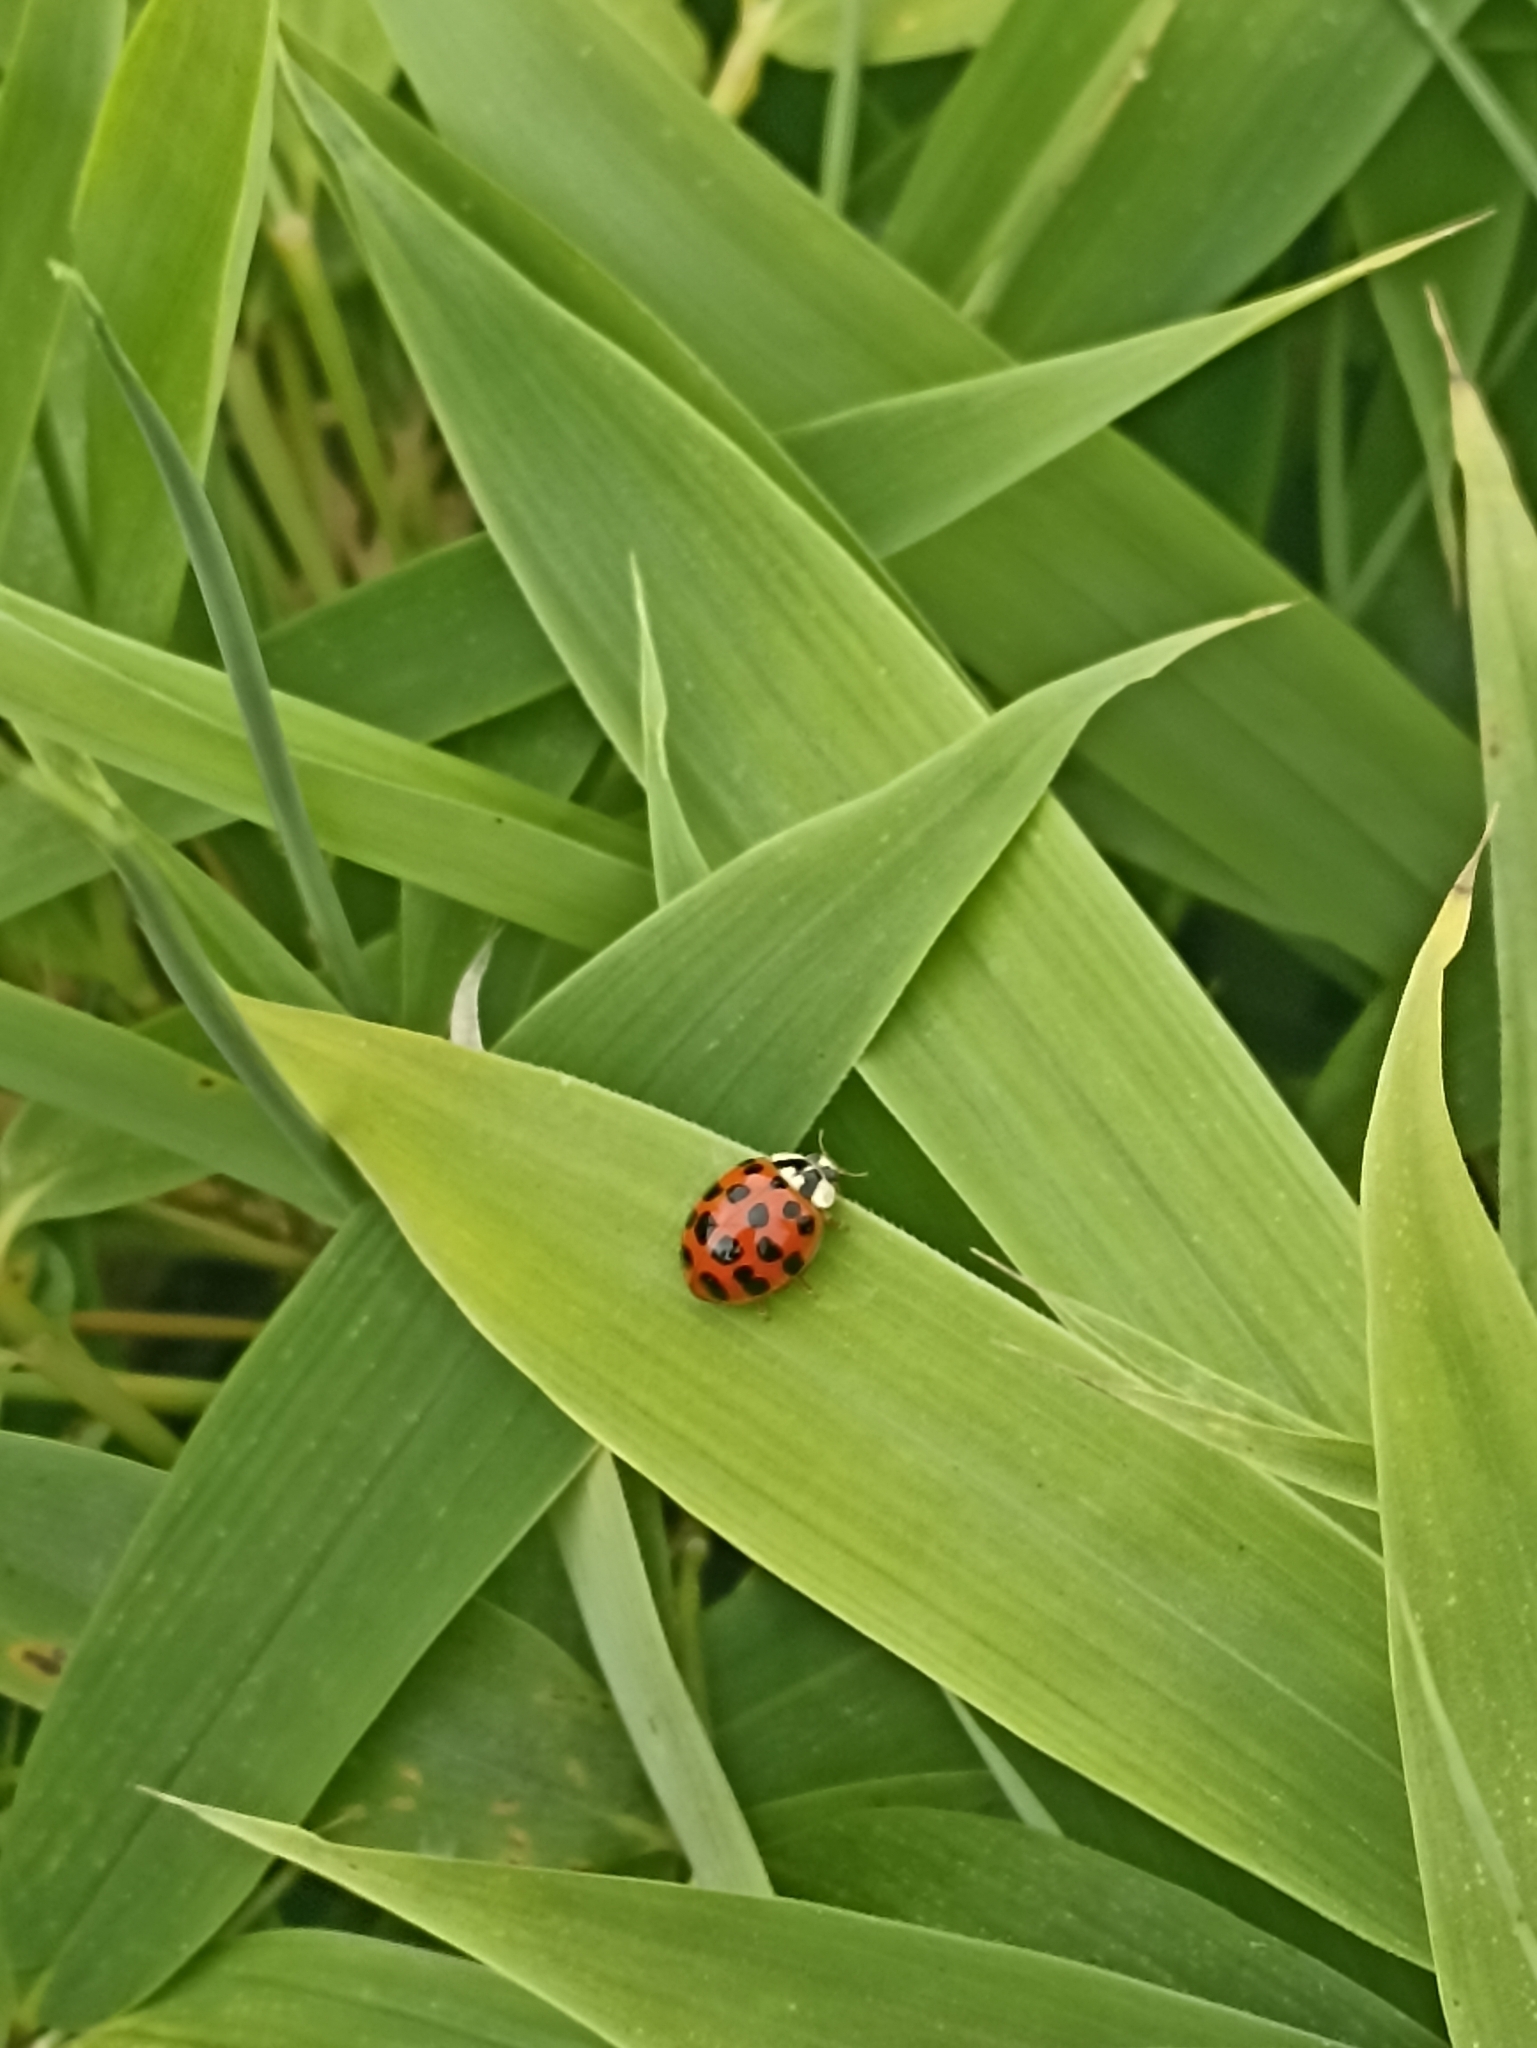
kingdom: Animalia
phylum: Arthropoda
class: Insecta
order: Coleoptera
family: Coccinellidae
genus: Harmonia
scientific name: Harmonia axyridis
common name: Harlequin ladybird
